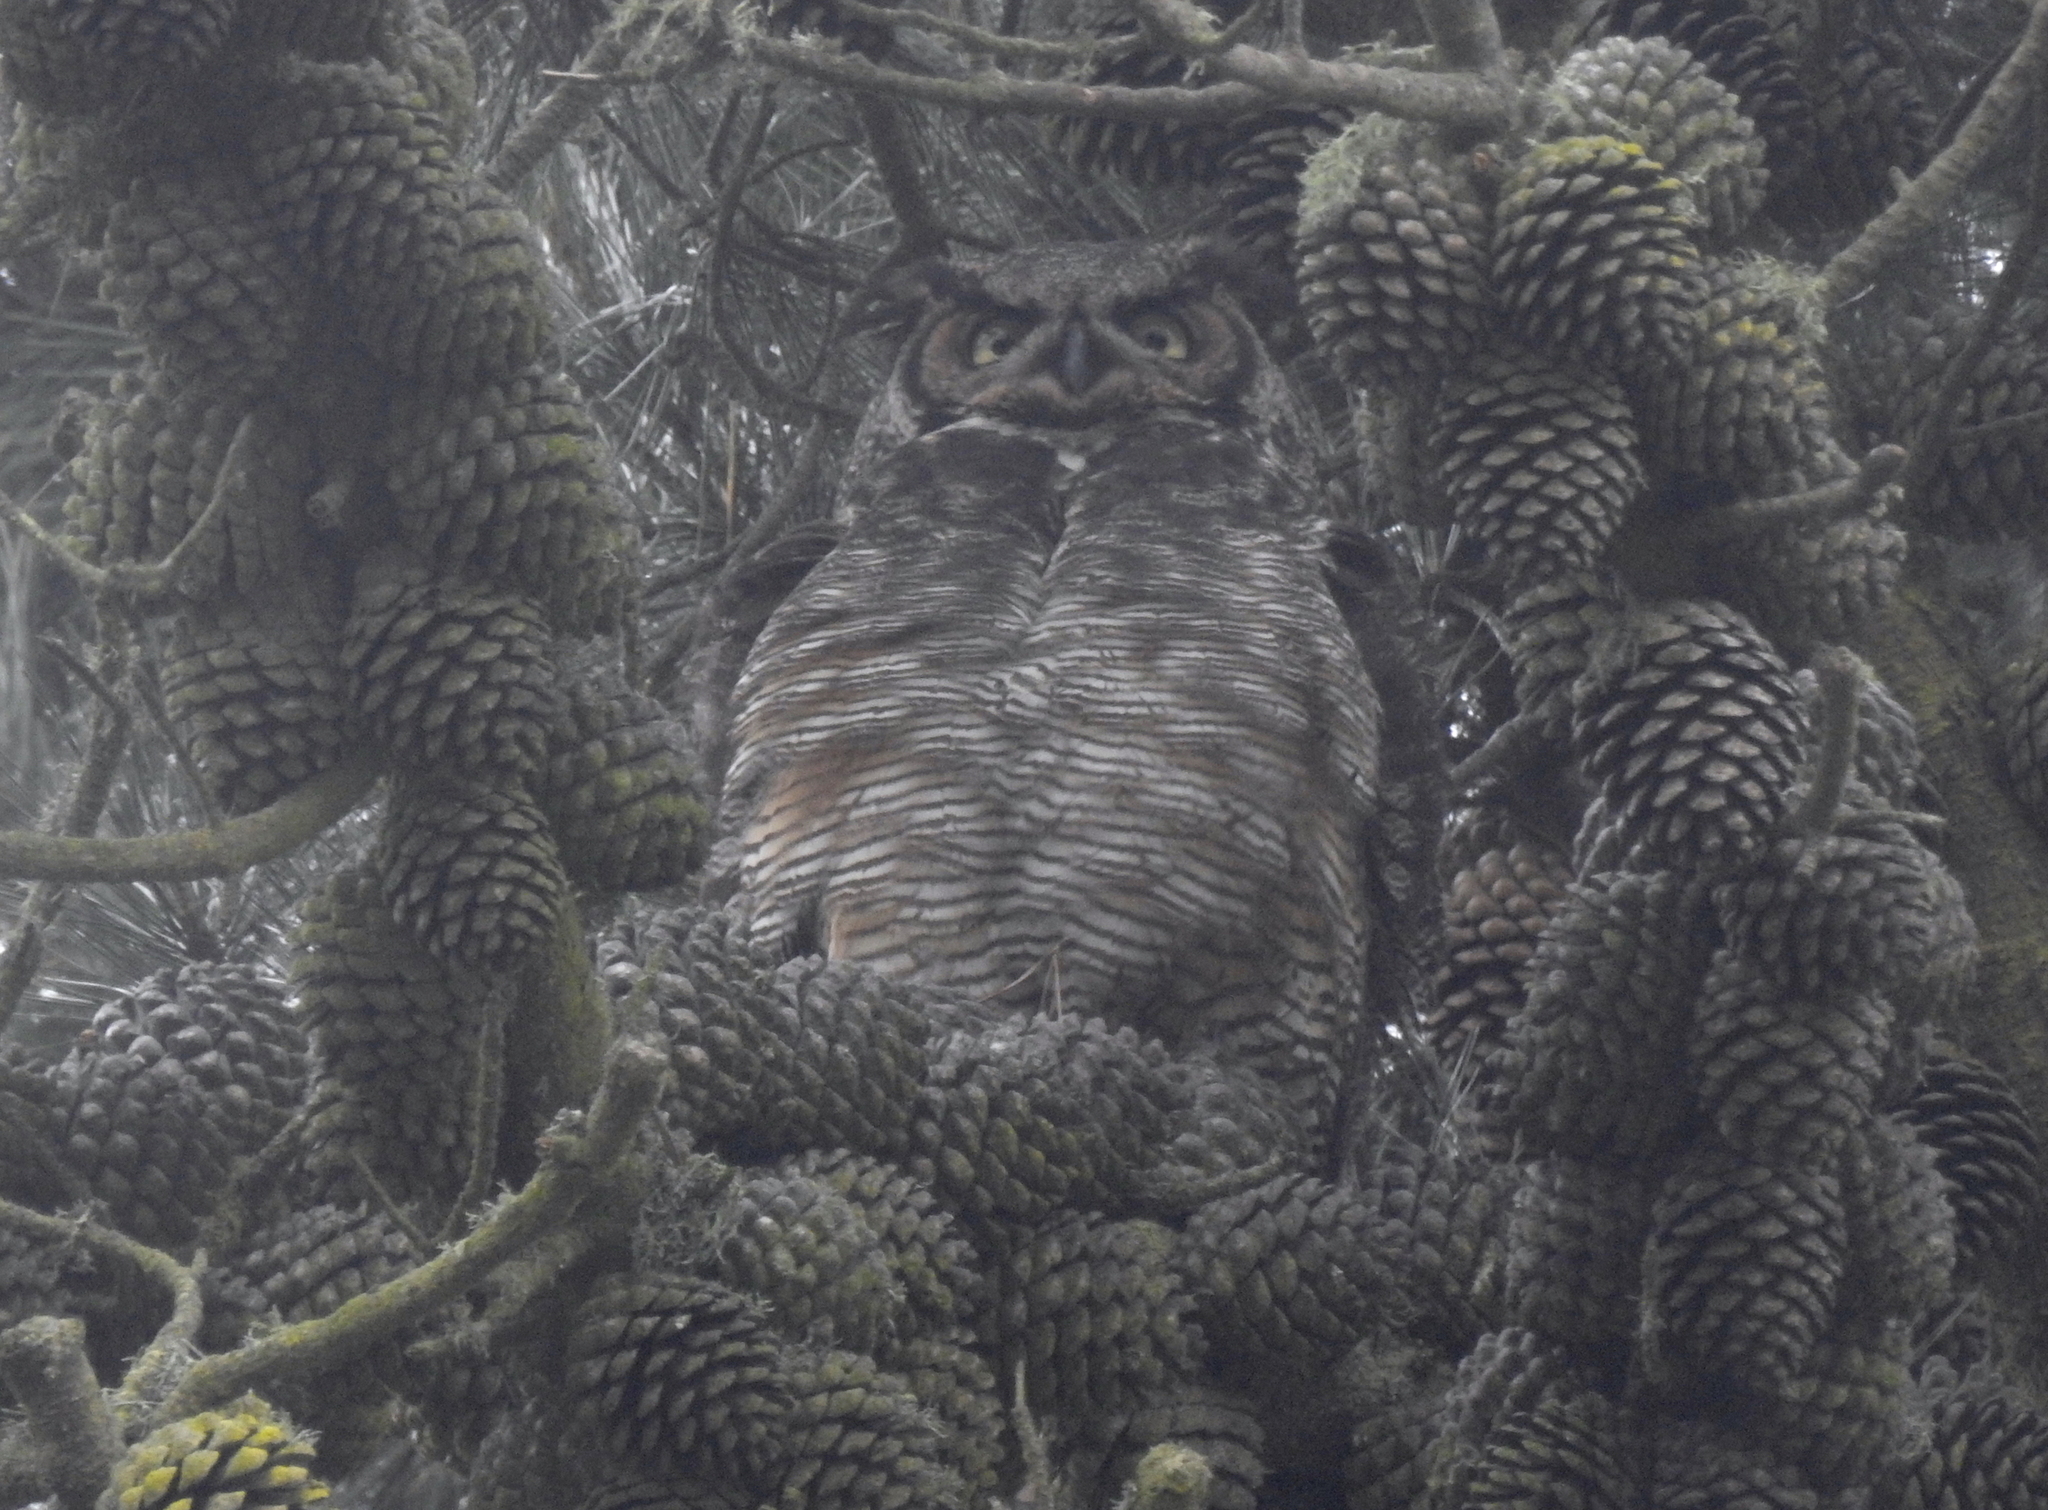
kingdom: Animalia
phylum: Chordata
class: Aves
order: Strigiformes
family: Strigidae
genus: Bubo
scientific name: Bubo virginianus
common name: Great horned owl
